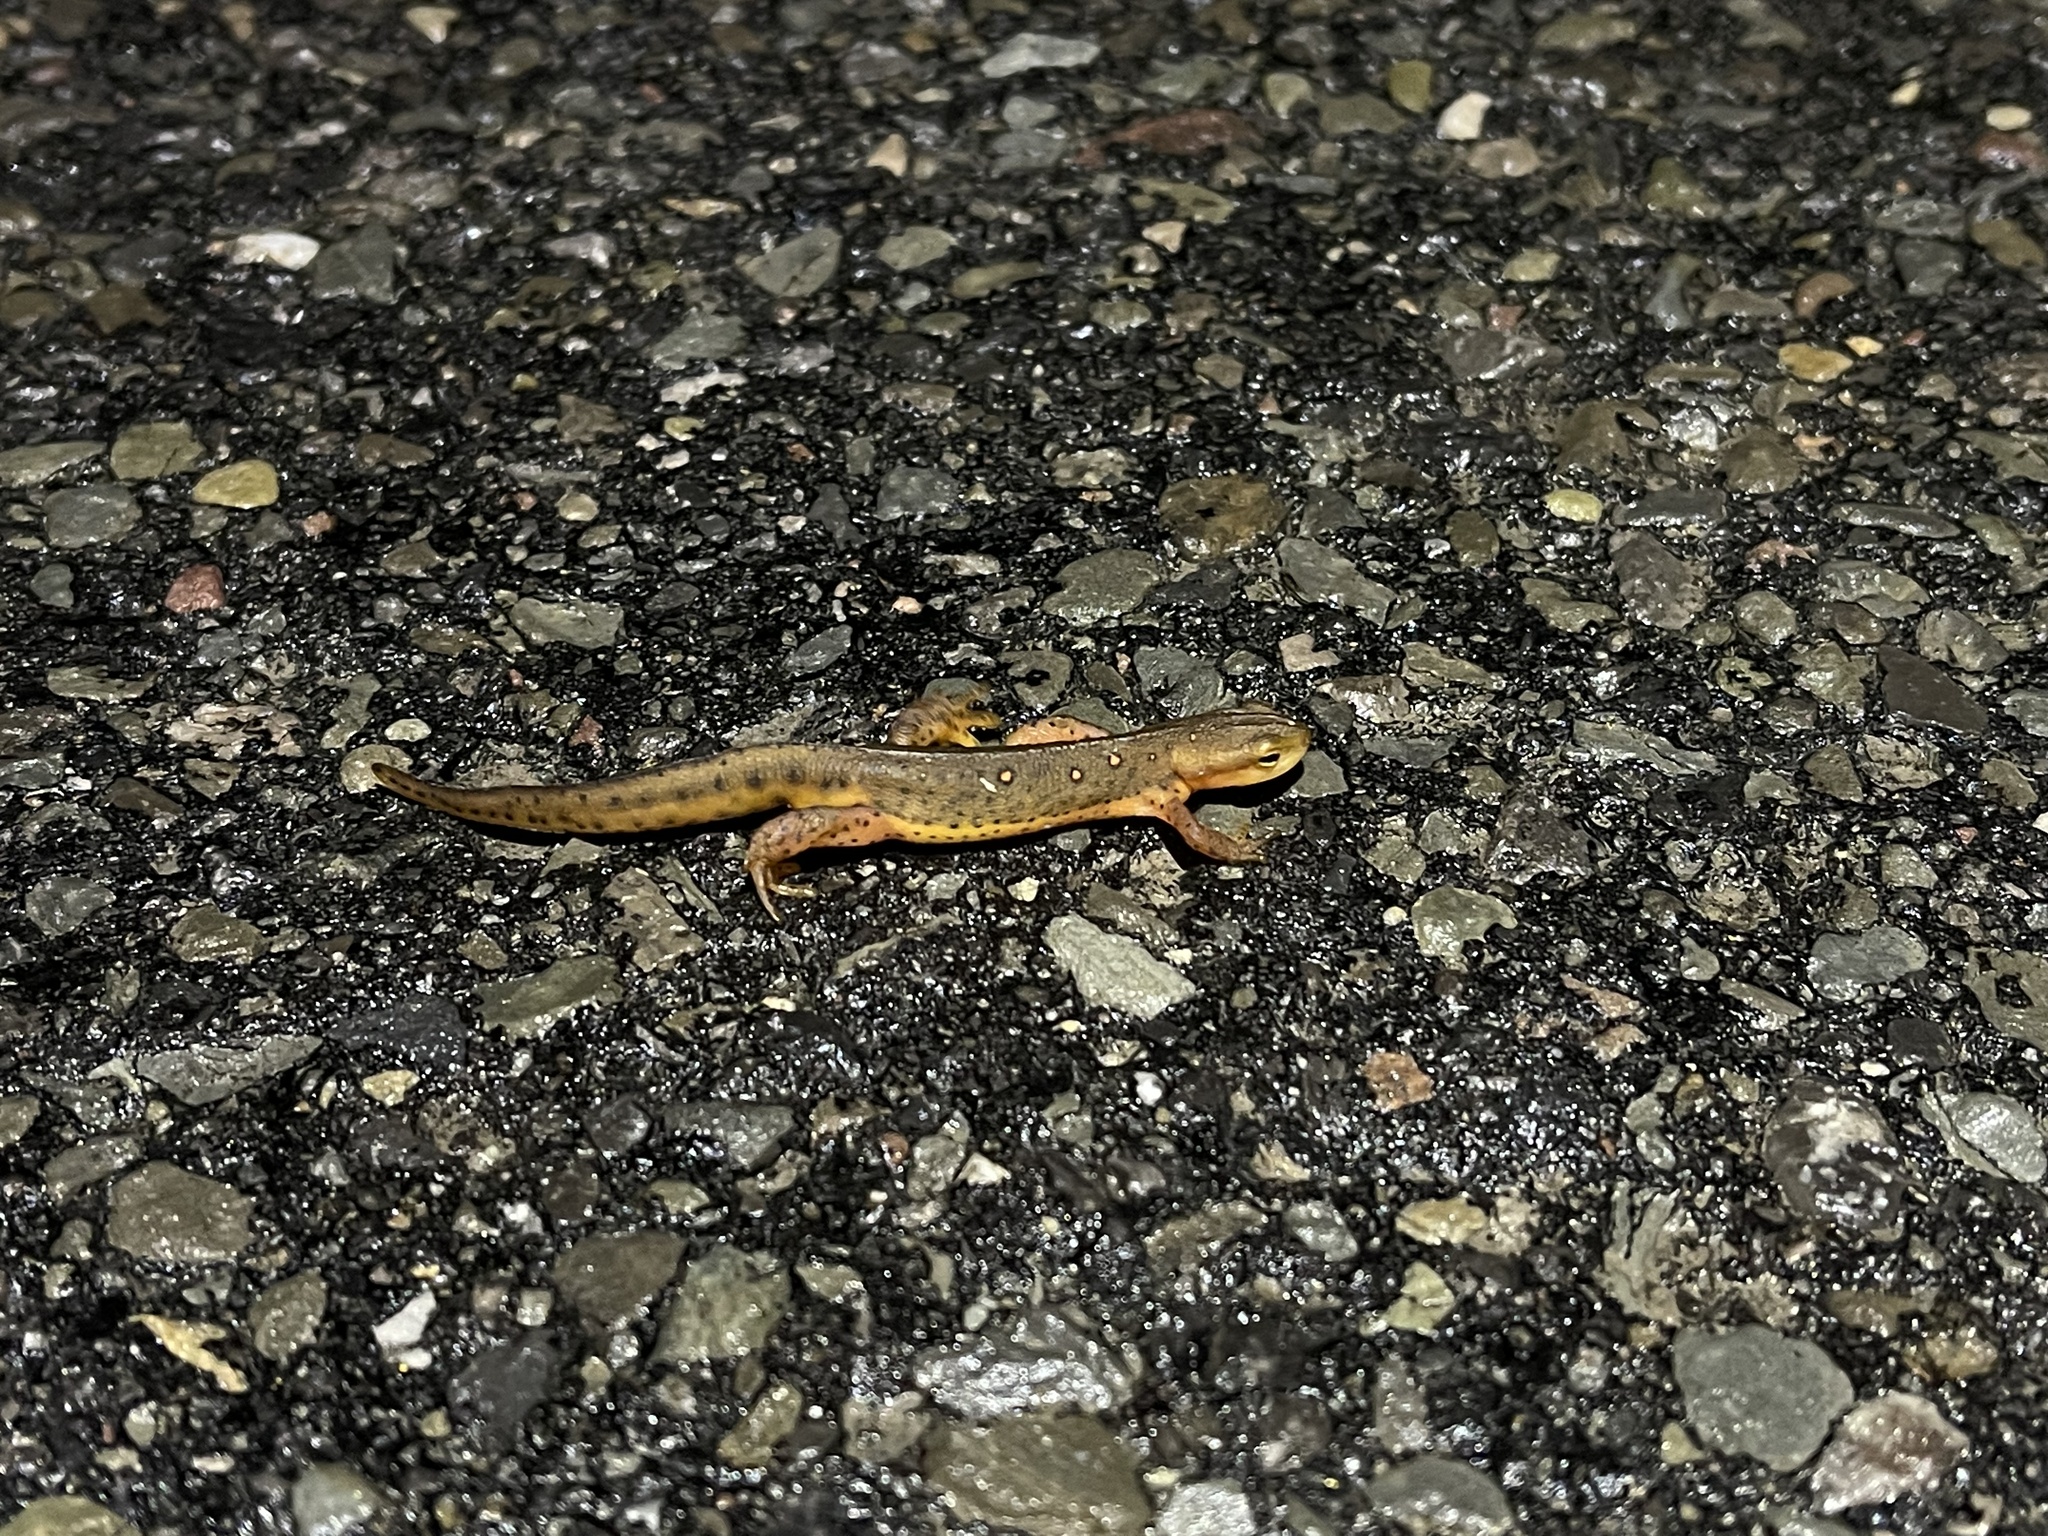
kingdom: Animalia
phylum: Chordata
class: Amphibia
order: Caudata
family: Salamandridae
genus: Notophthalmus
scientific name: Notophthalmus viridescens
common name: Eastern newt
